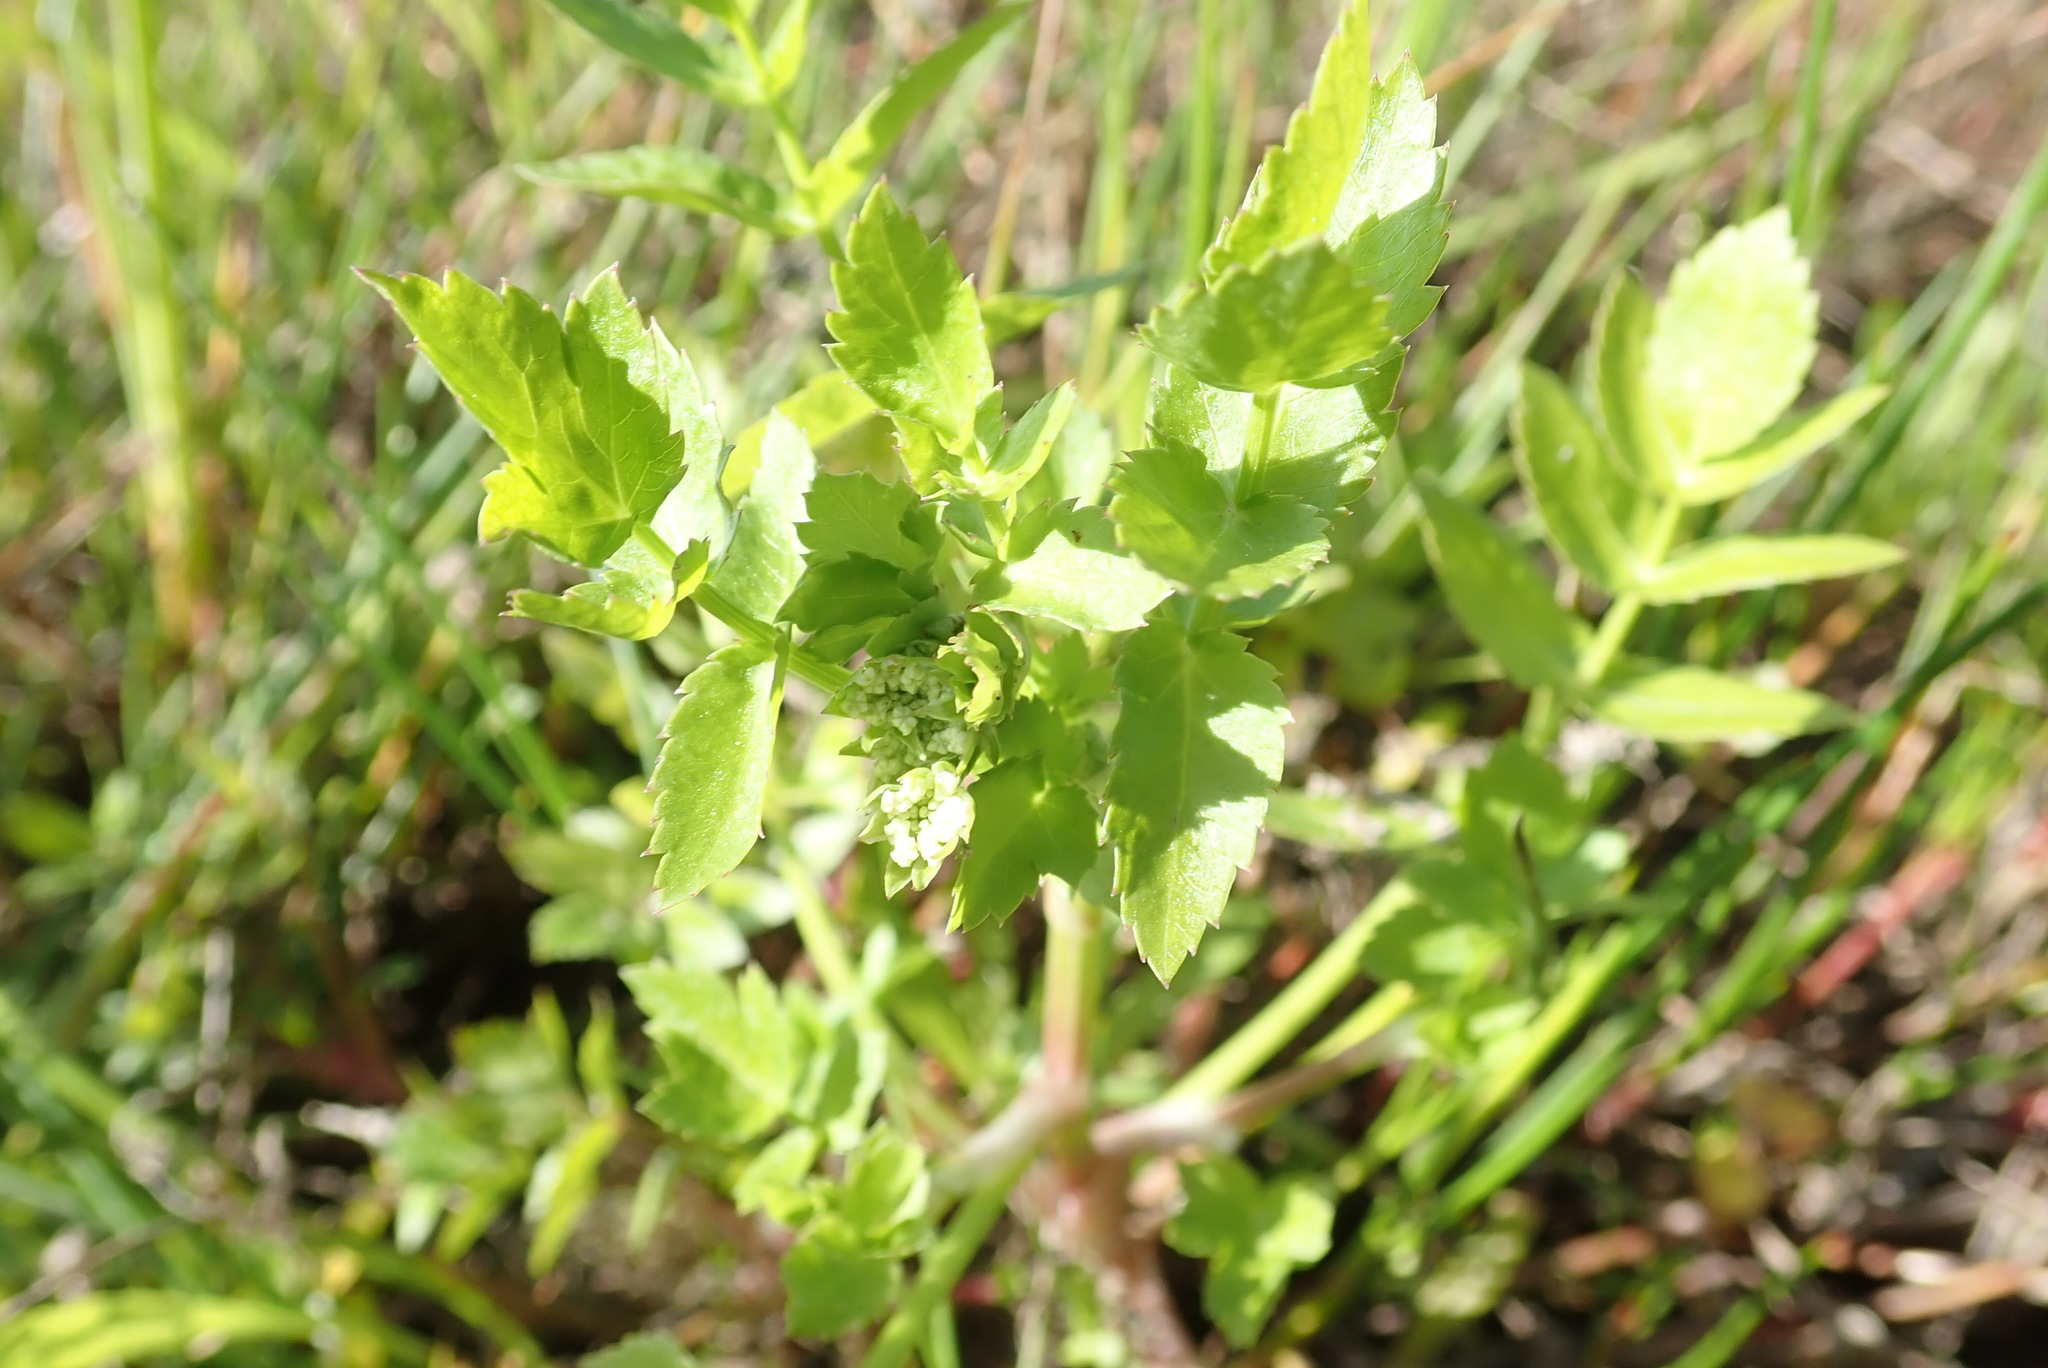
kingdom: Plantae
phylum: Tracheophyta
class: Magnoliopsida
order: Apiales
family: Apiaceae
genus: Helosciadium
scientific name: Helosciadium nodiflorum
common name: Fool's-watercress
